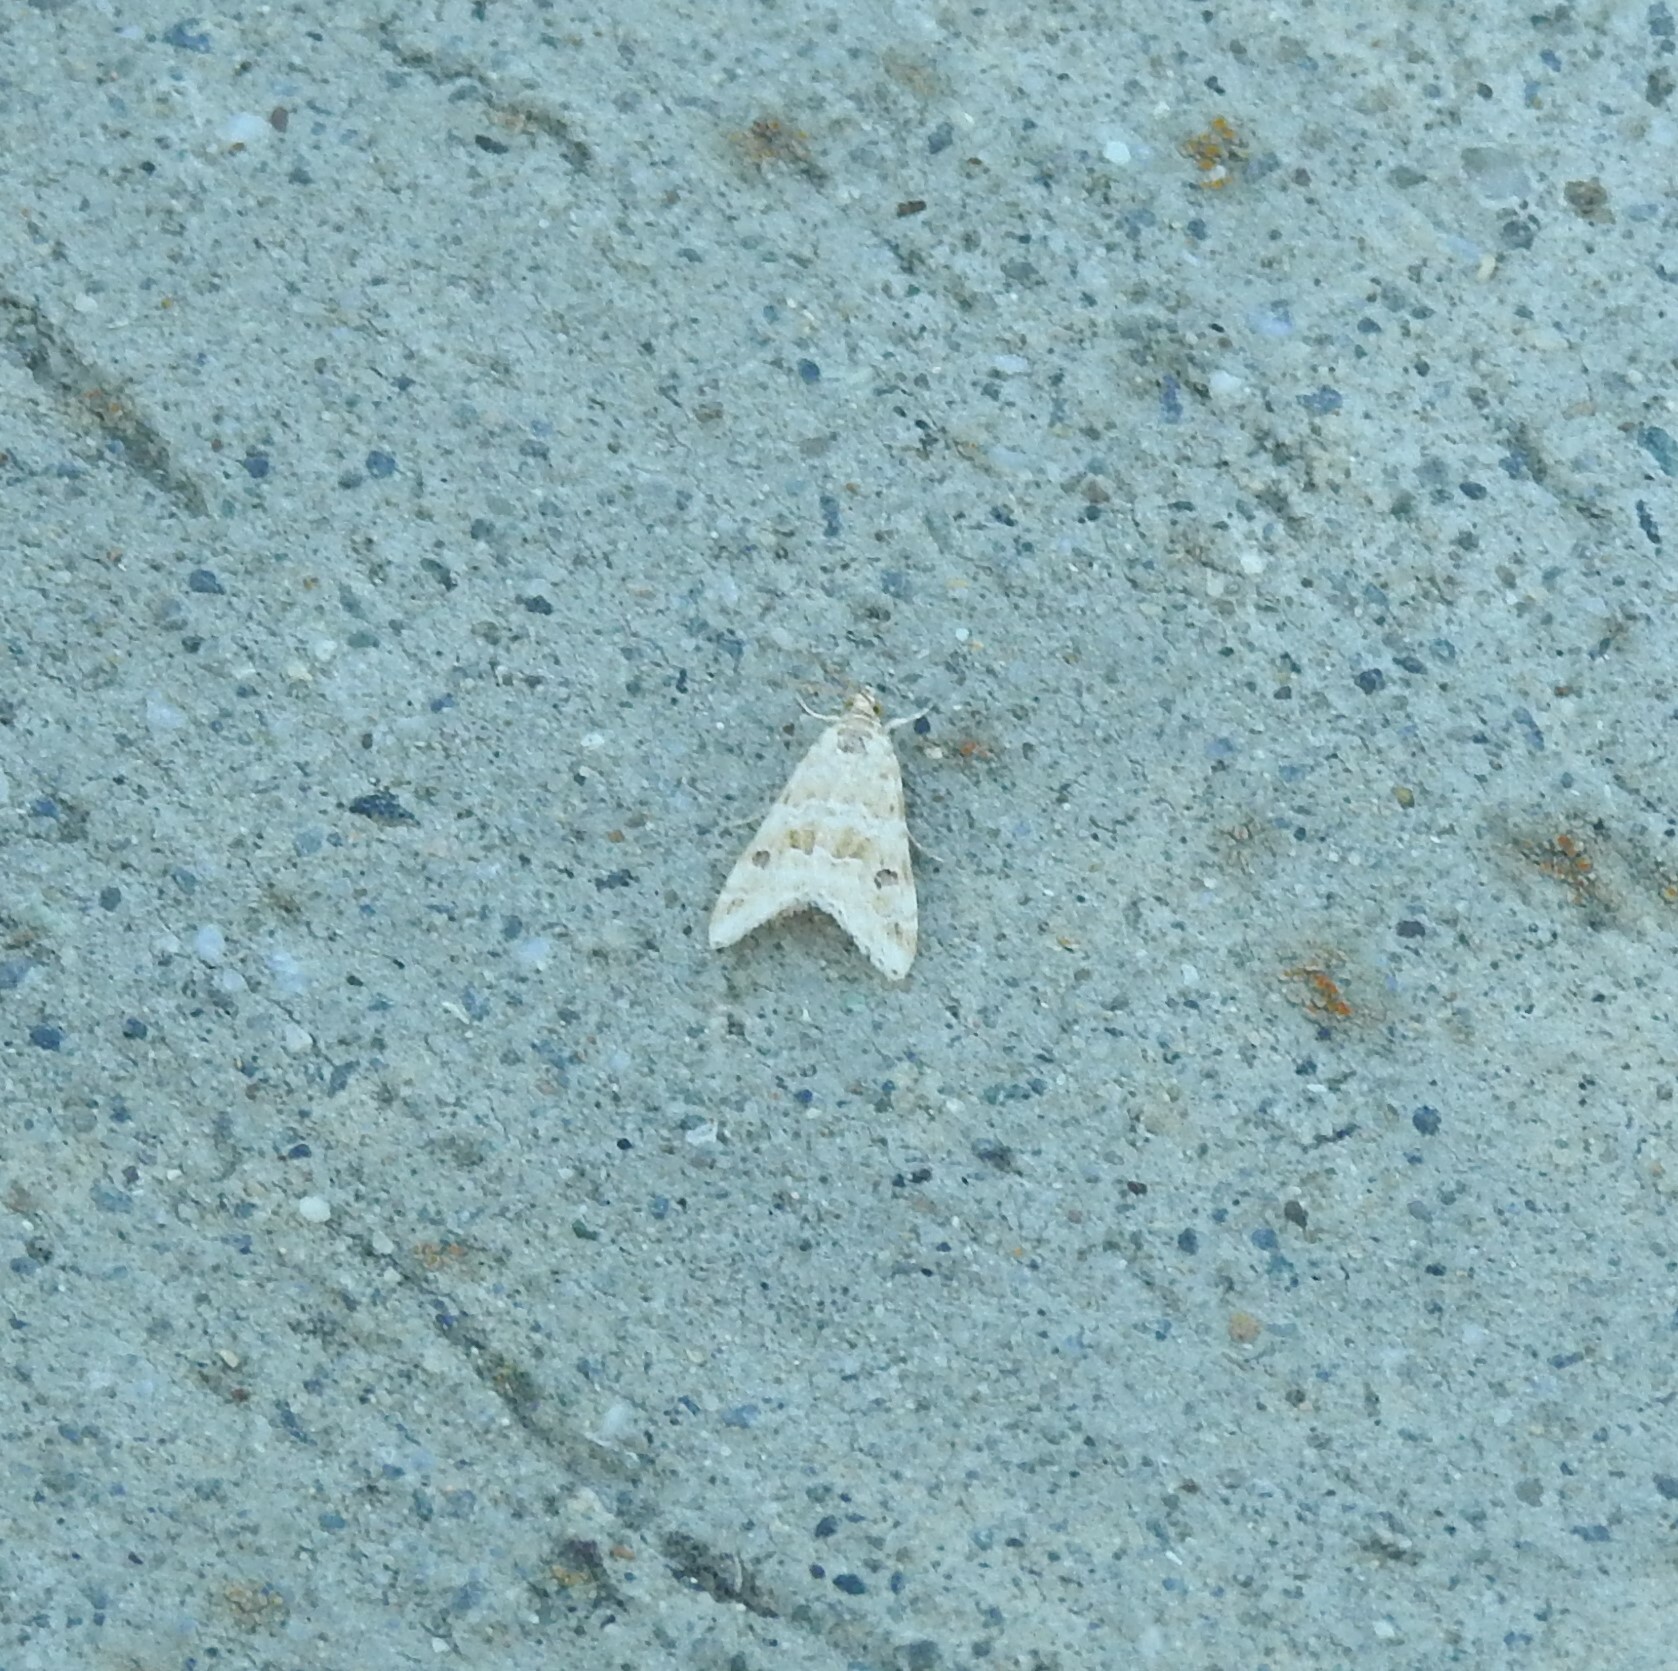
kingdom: Animalia
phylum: Arthropoda
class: Insecta
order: Lepidoptera
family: Crambidae
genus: Hellula
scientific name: Hellula rogatalis
